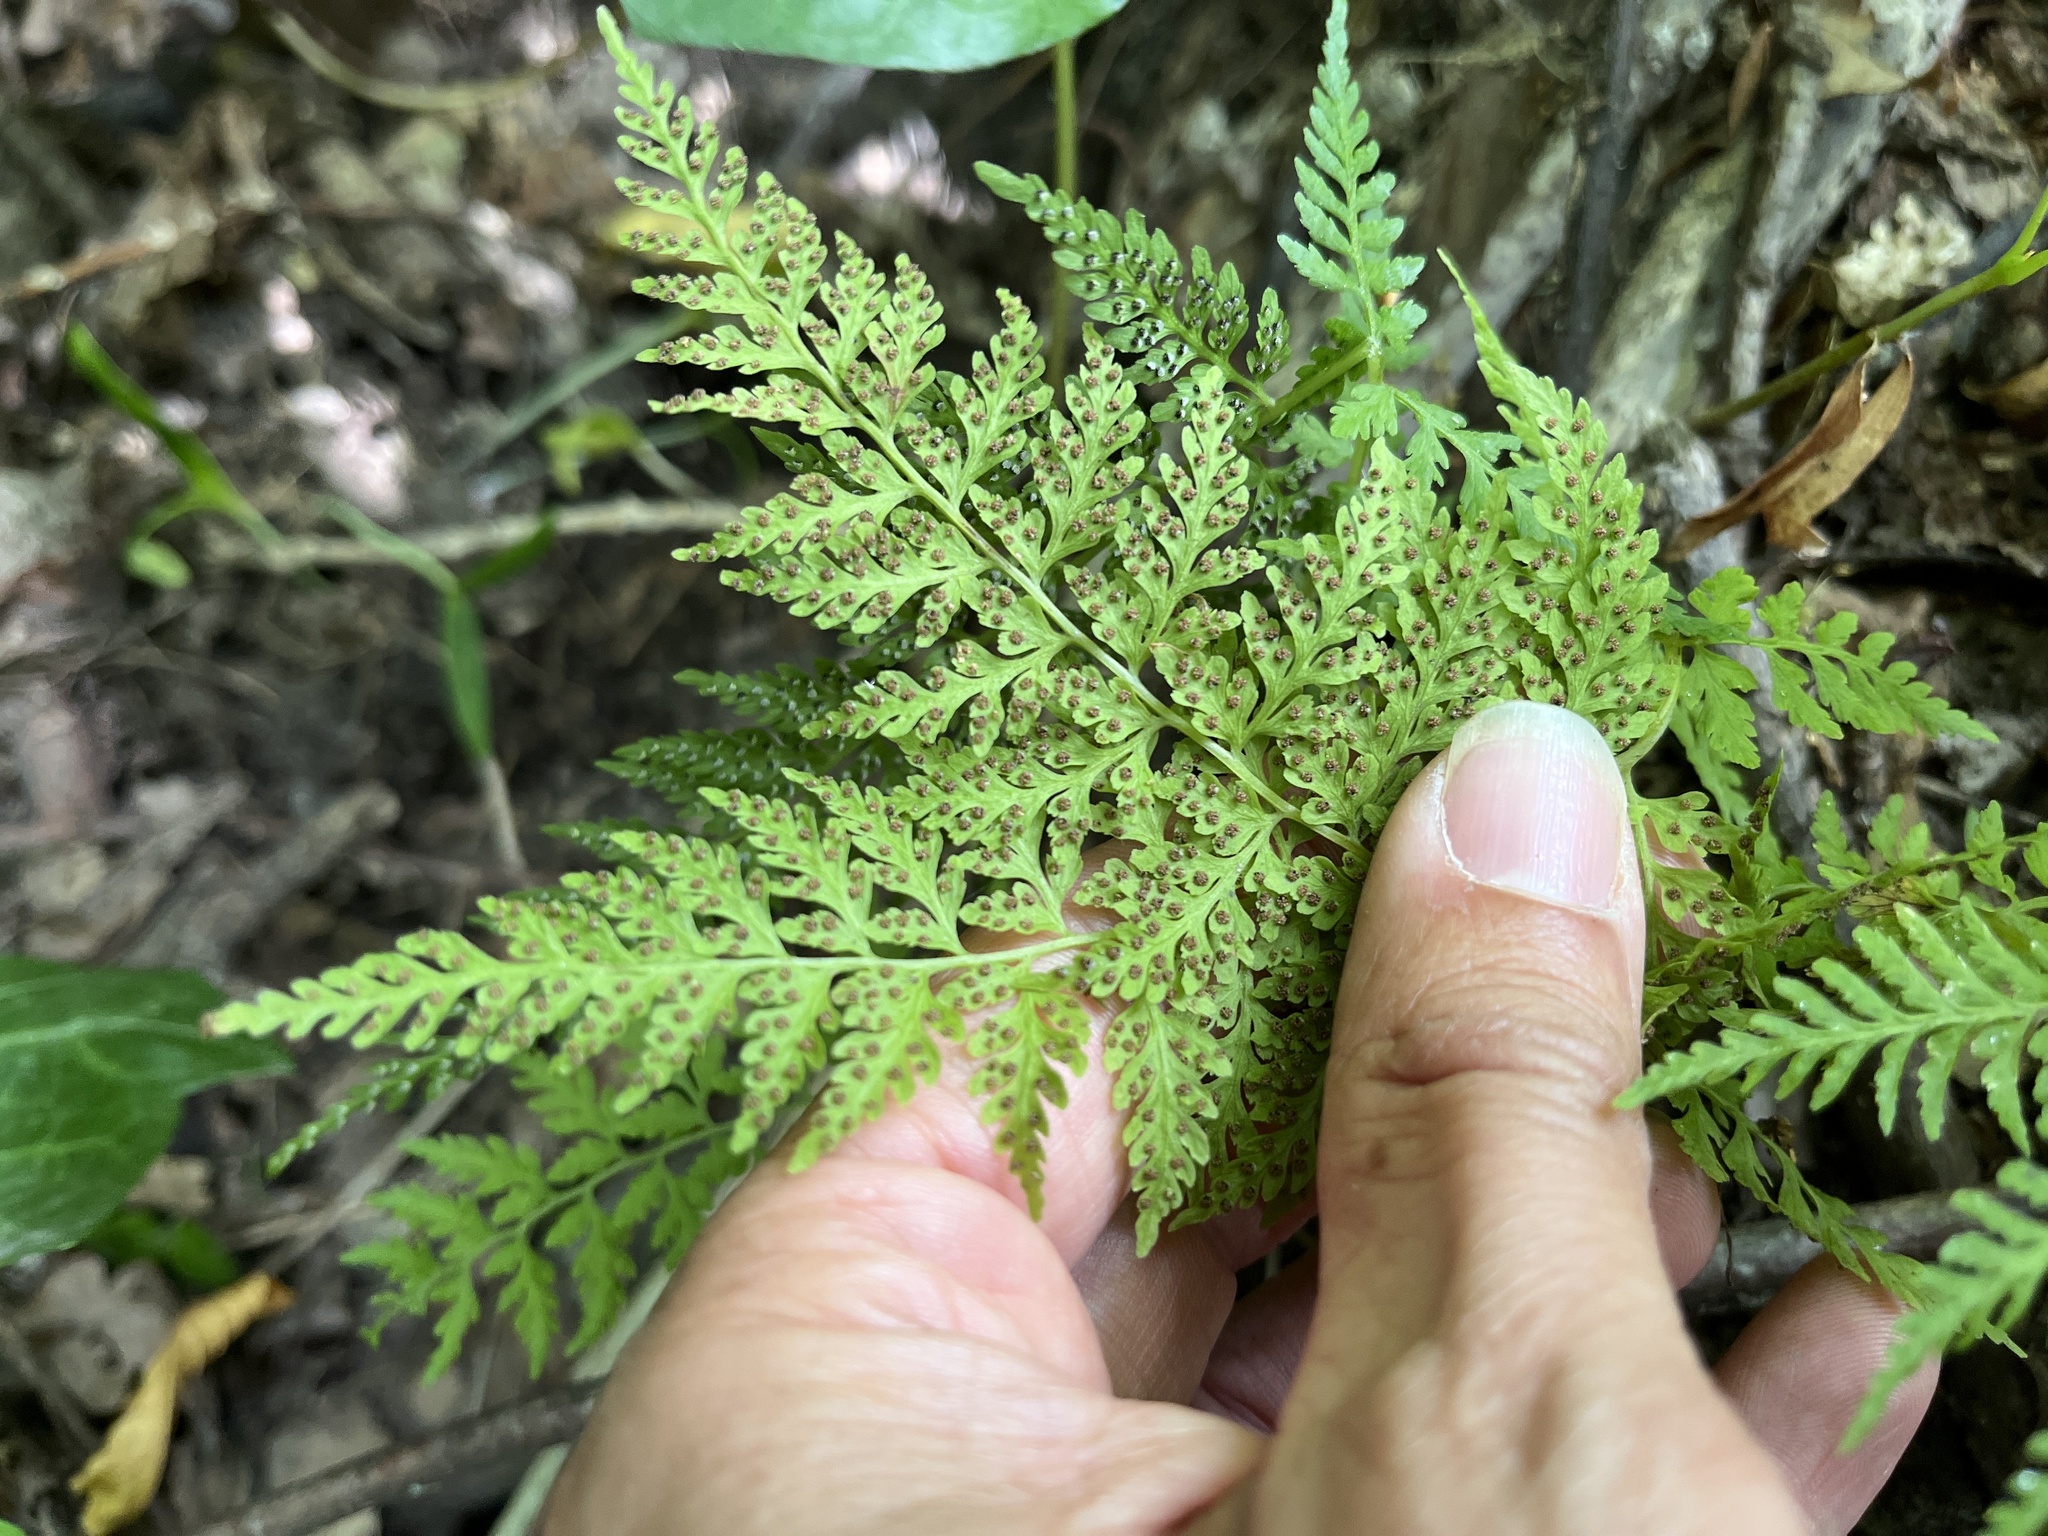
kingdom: Plantae
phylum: Tracheophyta
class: Polypodiopsida
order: Polypodiales
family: Cystopteridaceae
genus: Cystopteris
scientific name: Cystopteris fragilis
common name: Brittle bladder fern
